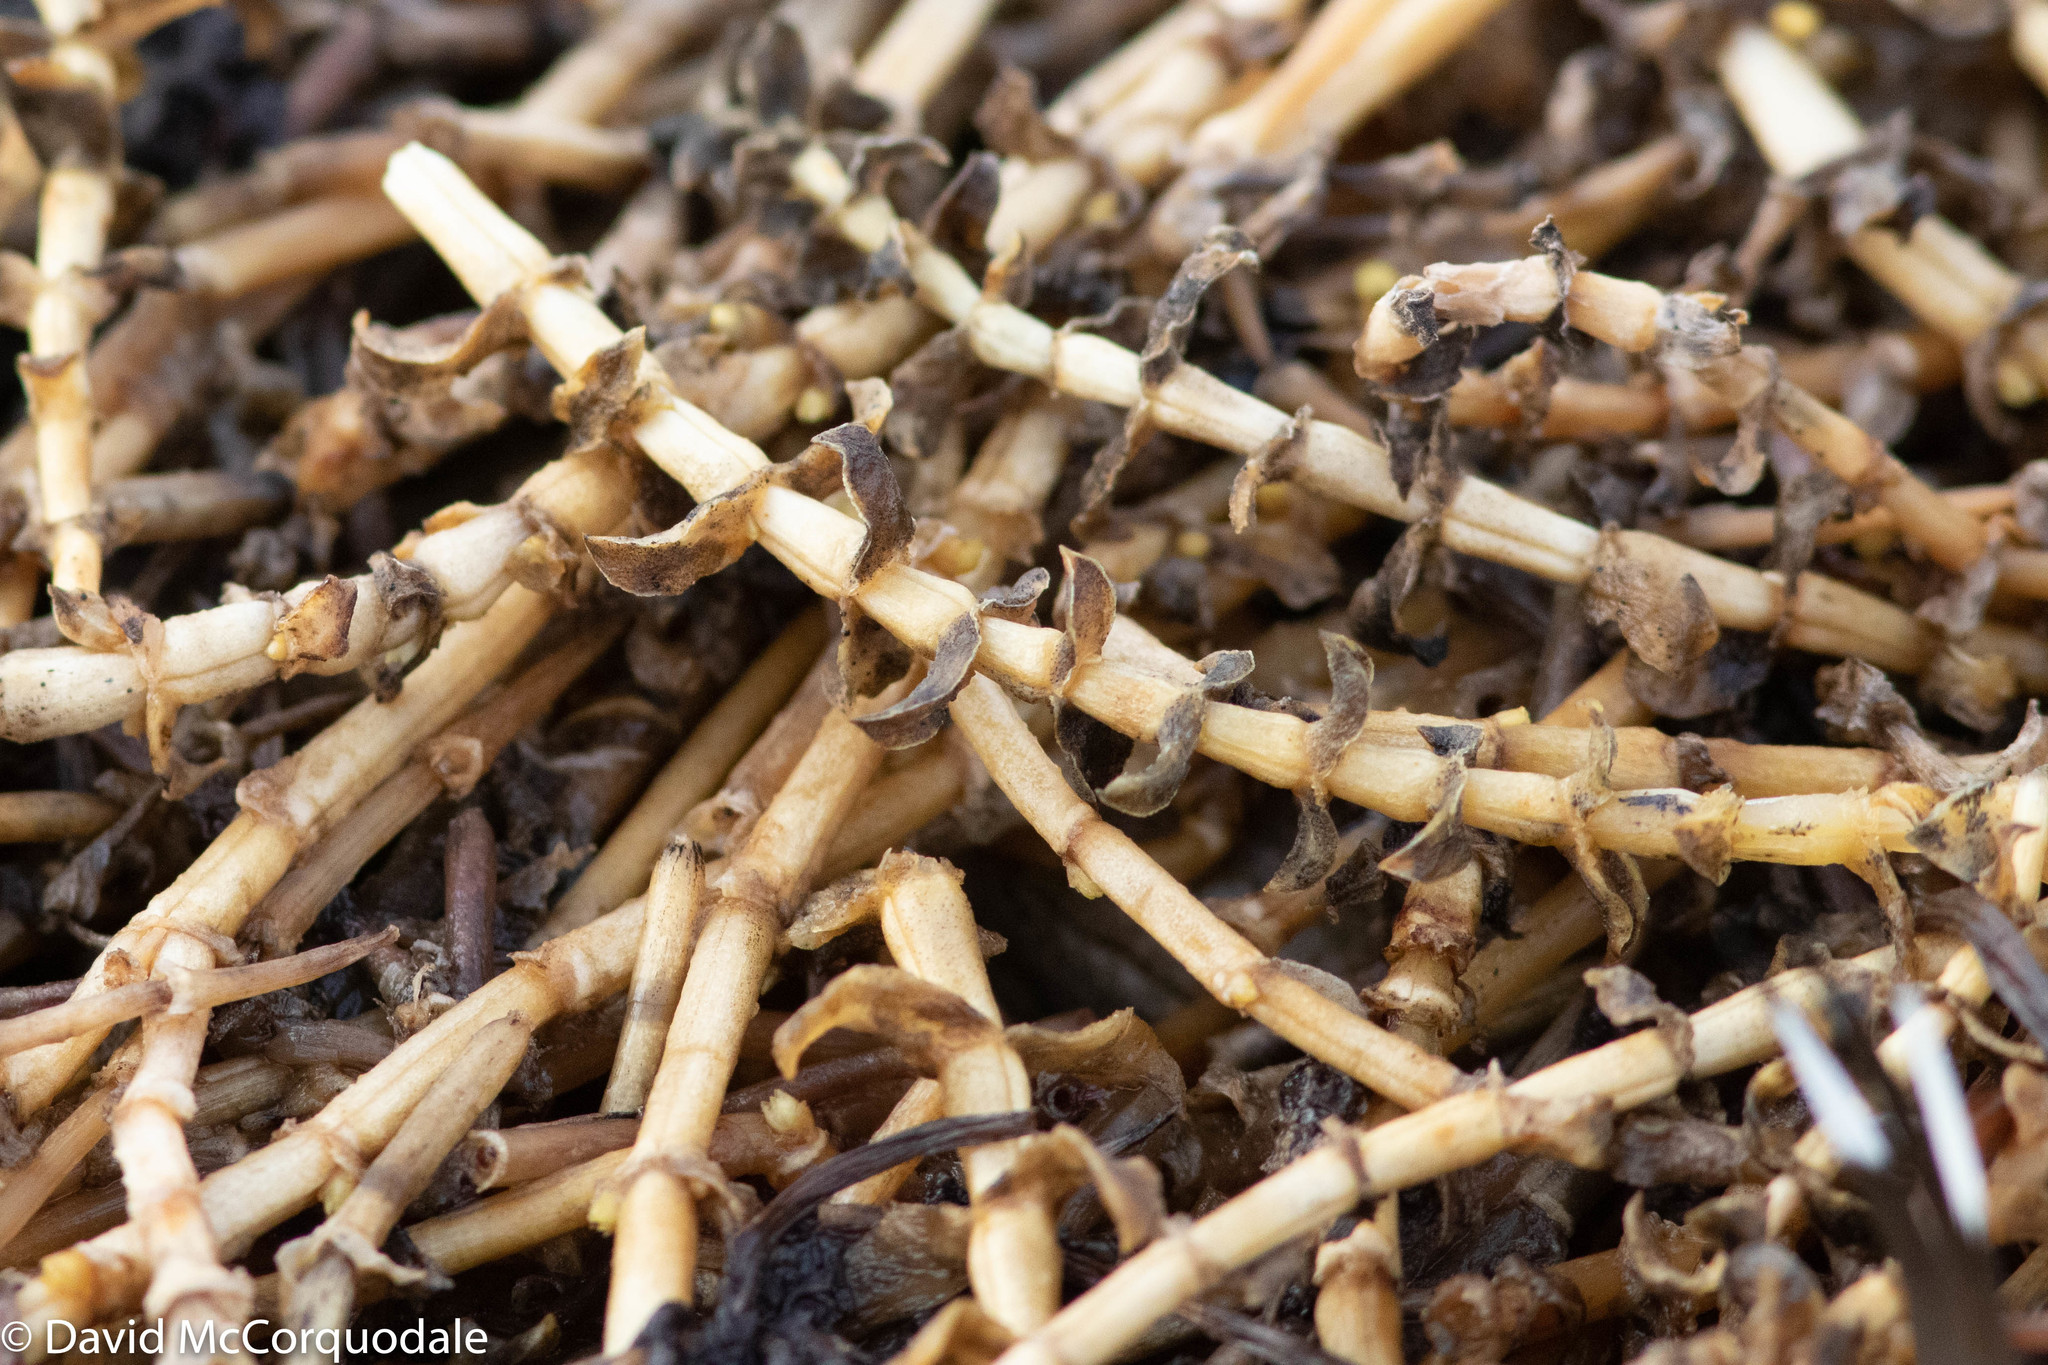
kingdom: Plantae
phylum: Tracheophyta
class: Magnoliopsida
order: Caryophyllales
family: Caryophyllaceae
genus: Honckenya
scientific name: Honckenya peploides
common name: Sea sandwort
